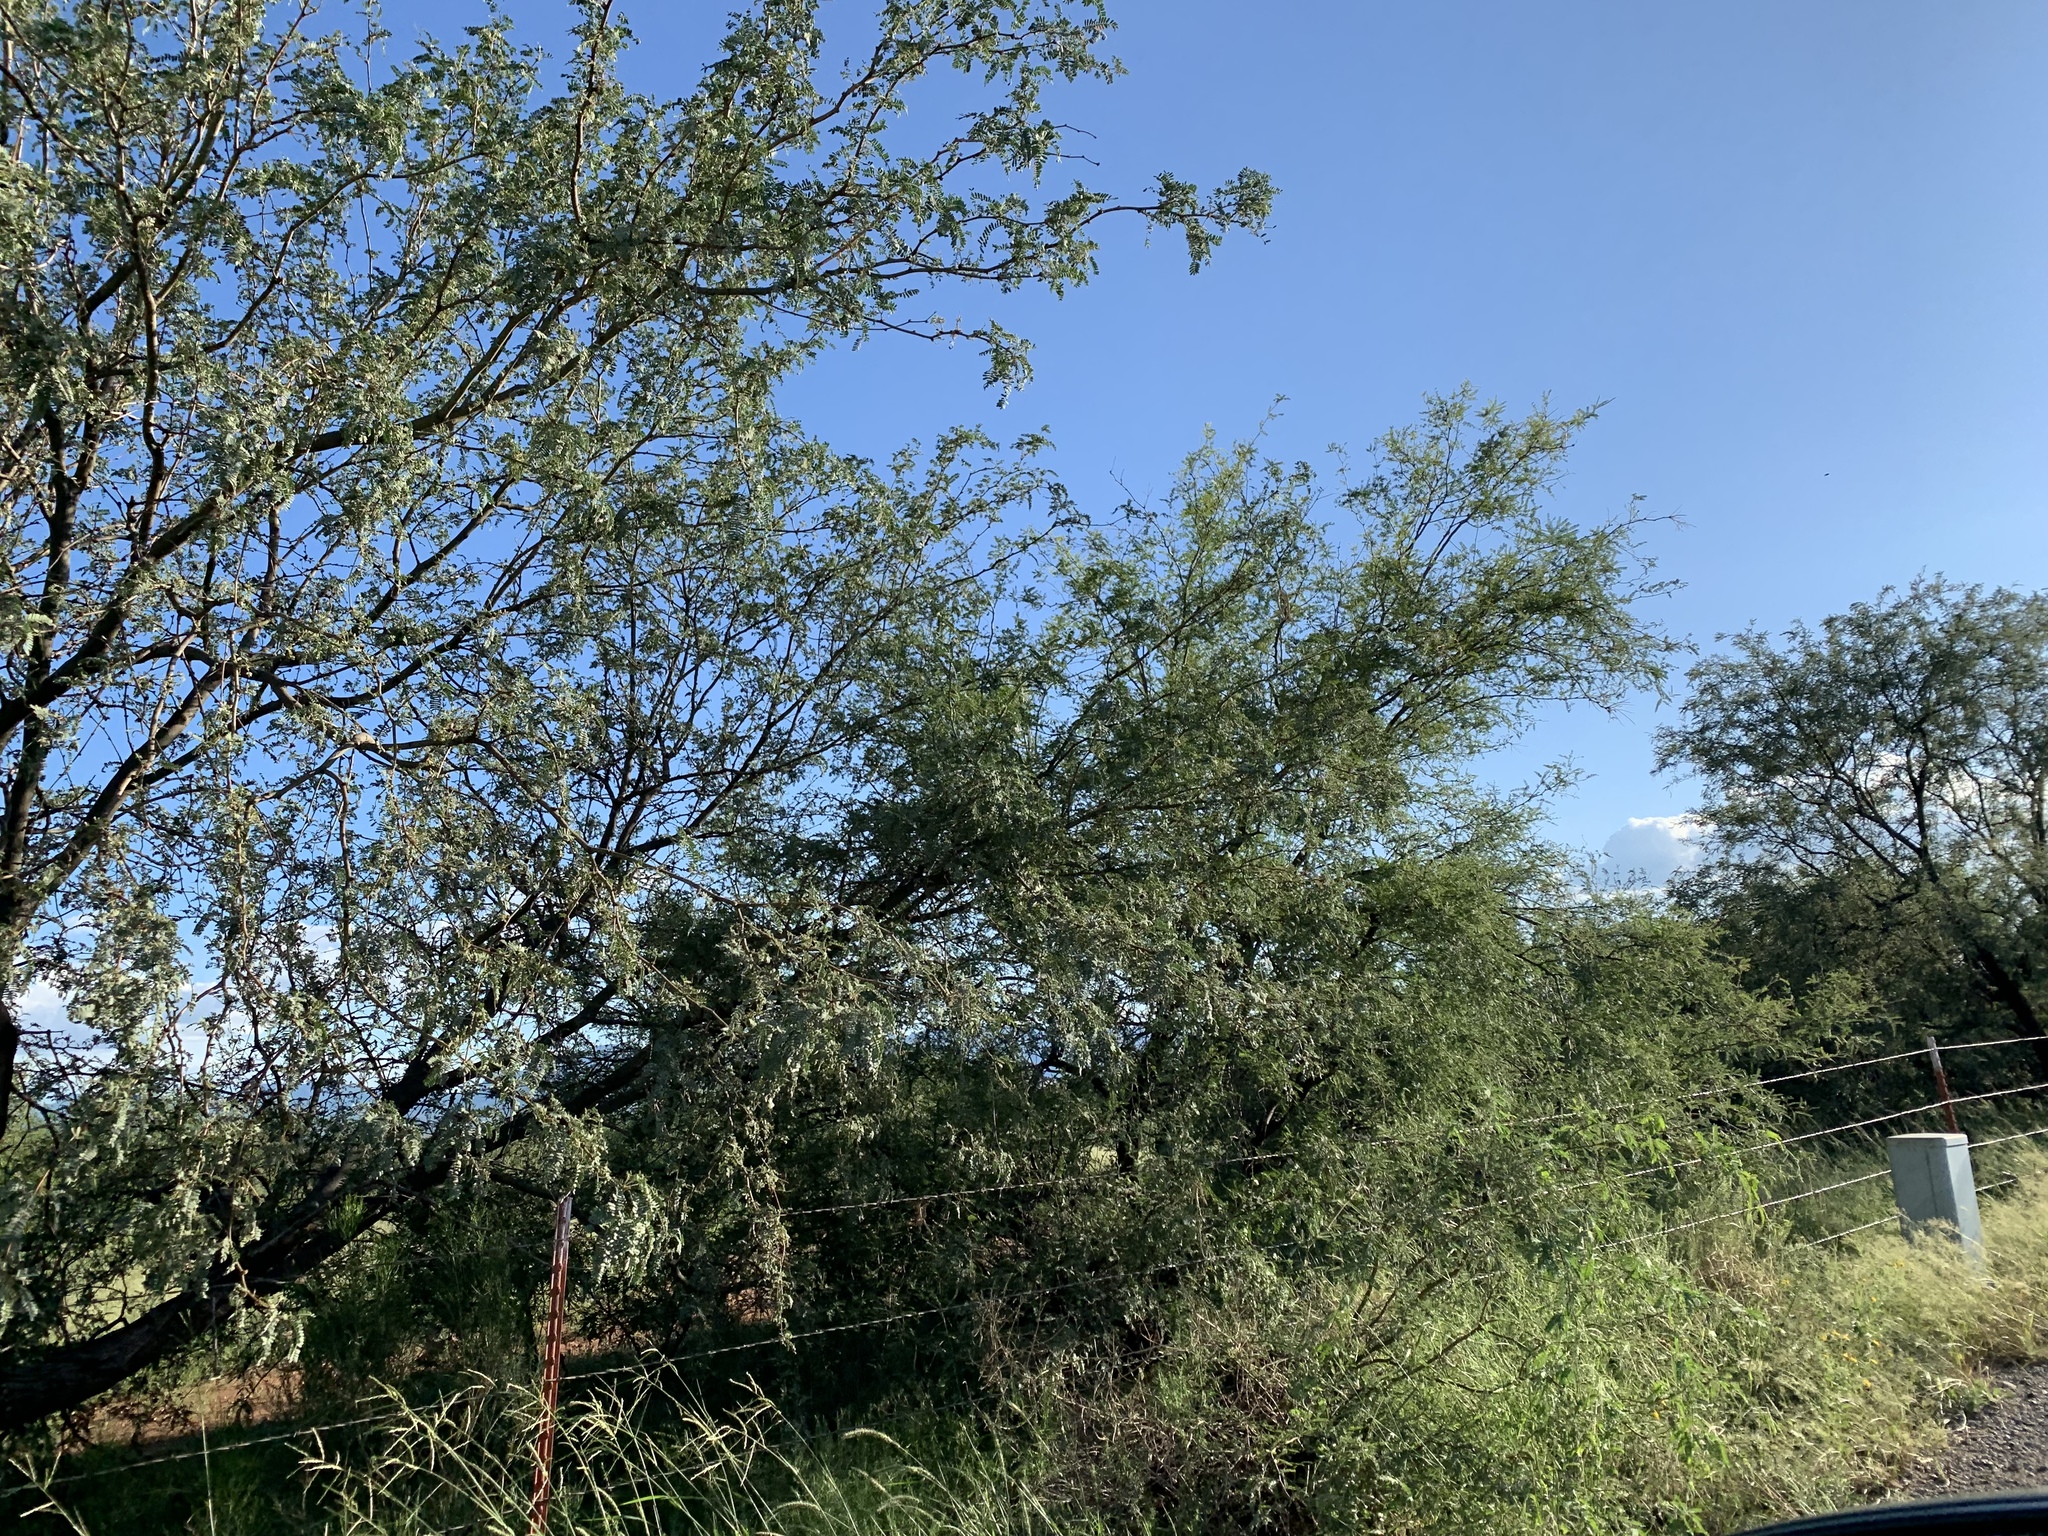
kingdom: Plantae
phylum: Tracheophyta
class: Magnoliopsida
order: Fabales
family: Fabaceae
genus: Prosopis
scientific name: Prosopis velutina
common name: Velvet mesquite
